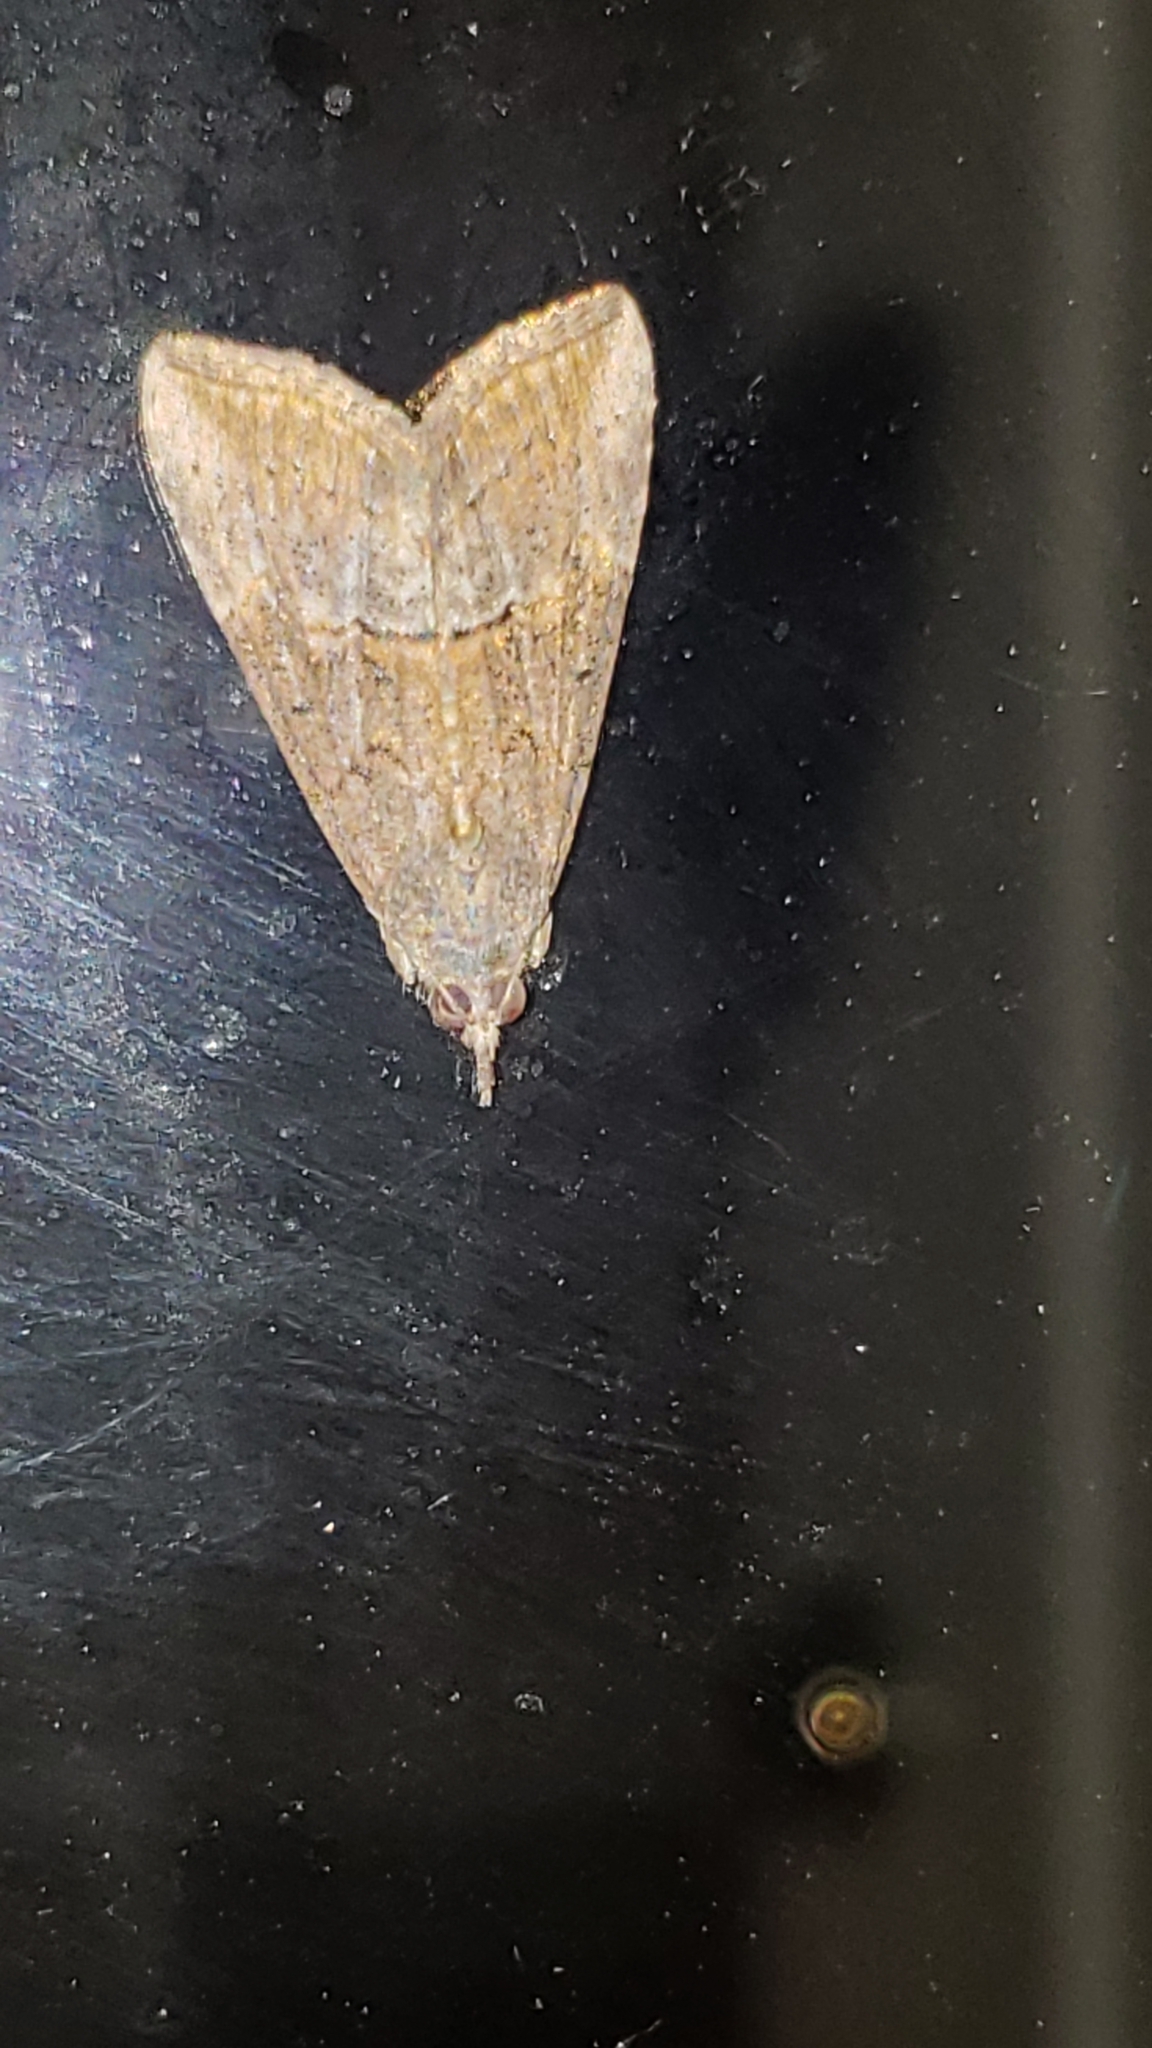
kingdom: Animalia
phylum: Arthropoda
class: Insecta
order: Lepidoptera
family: Erebidae
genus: Hypena
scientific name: Hypena scabra
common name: Green cloverworm
